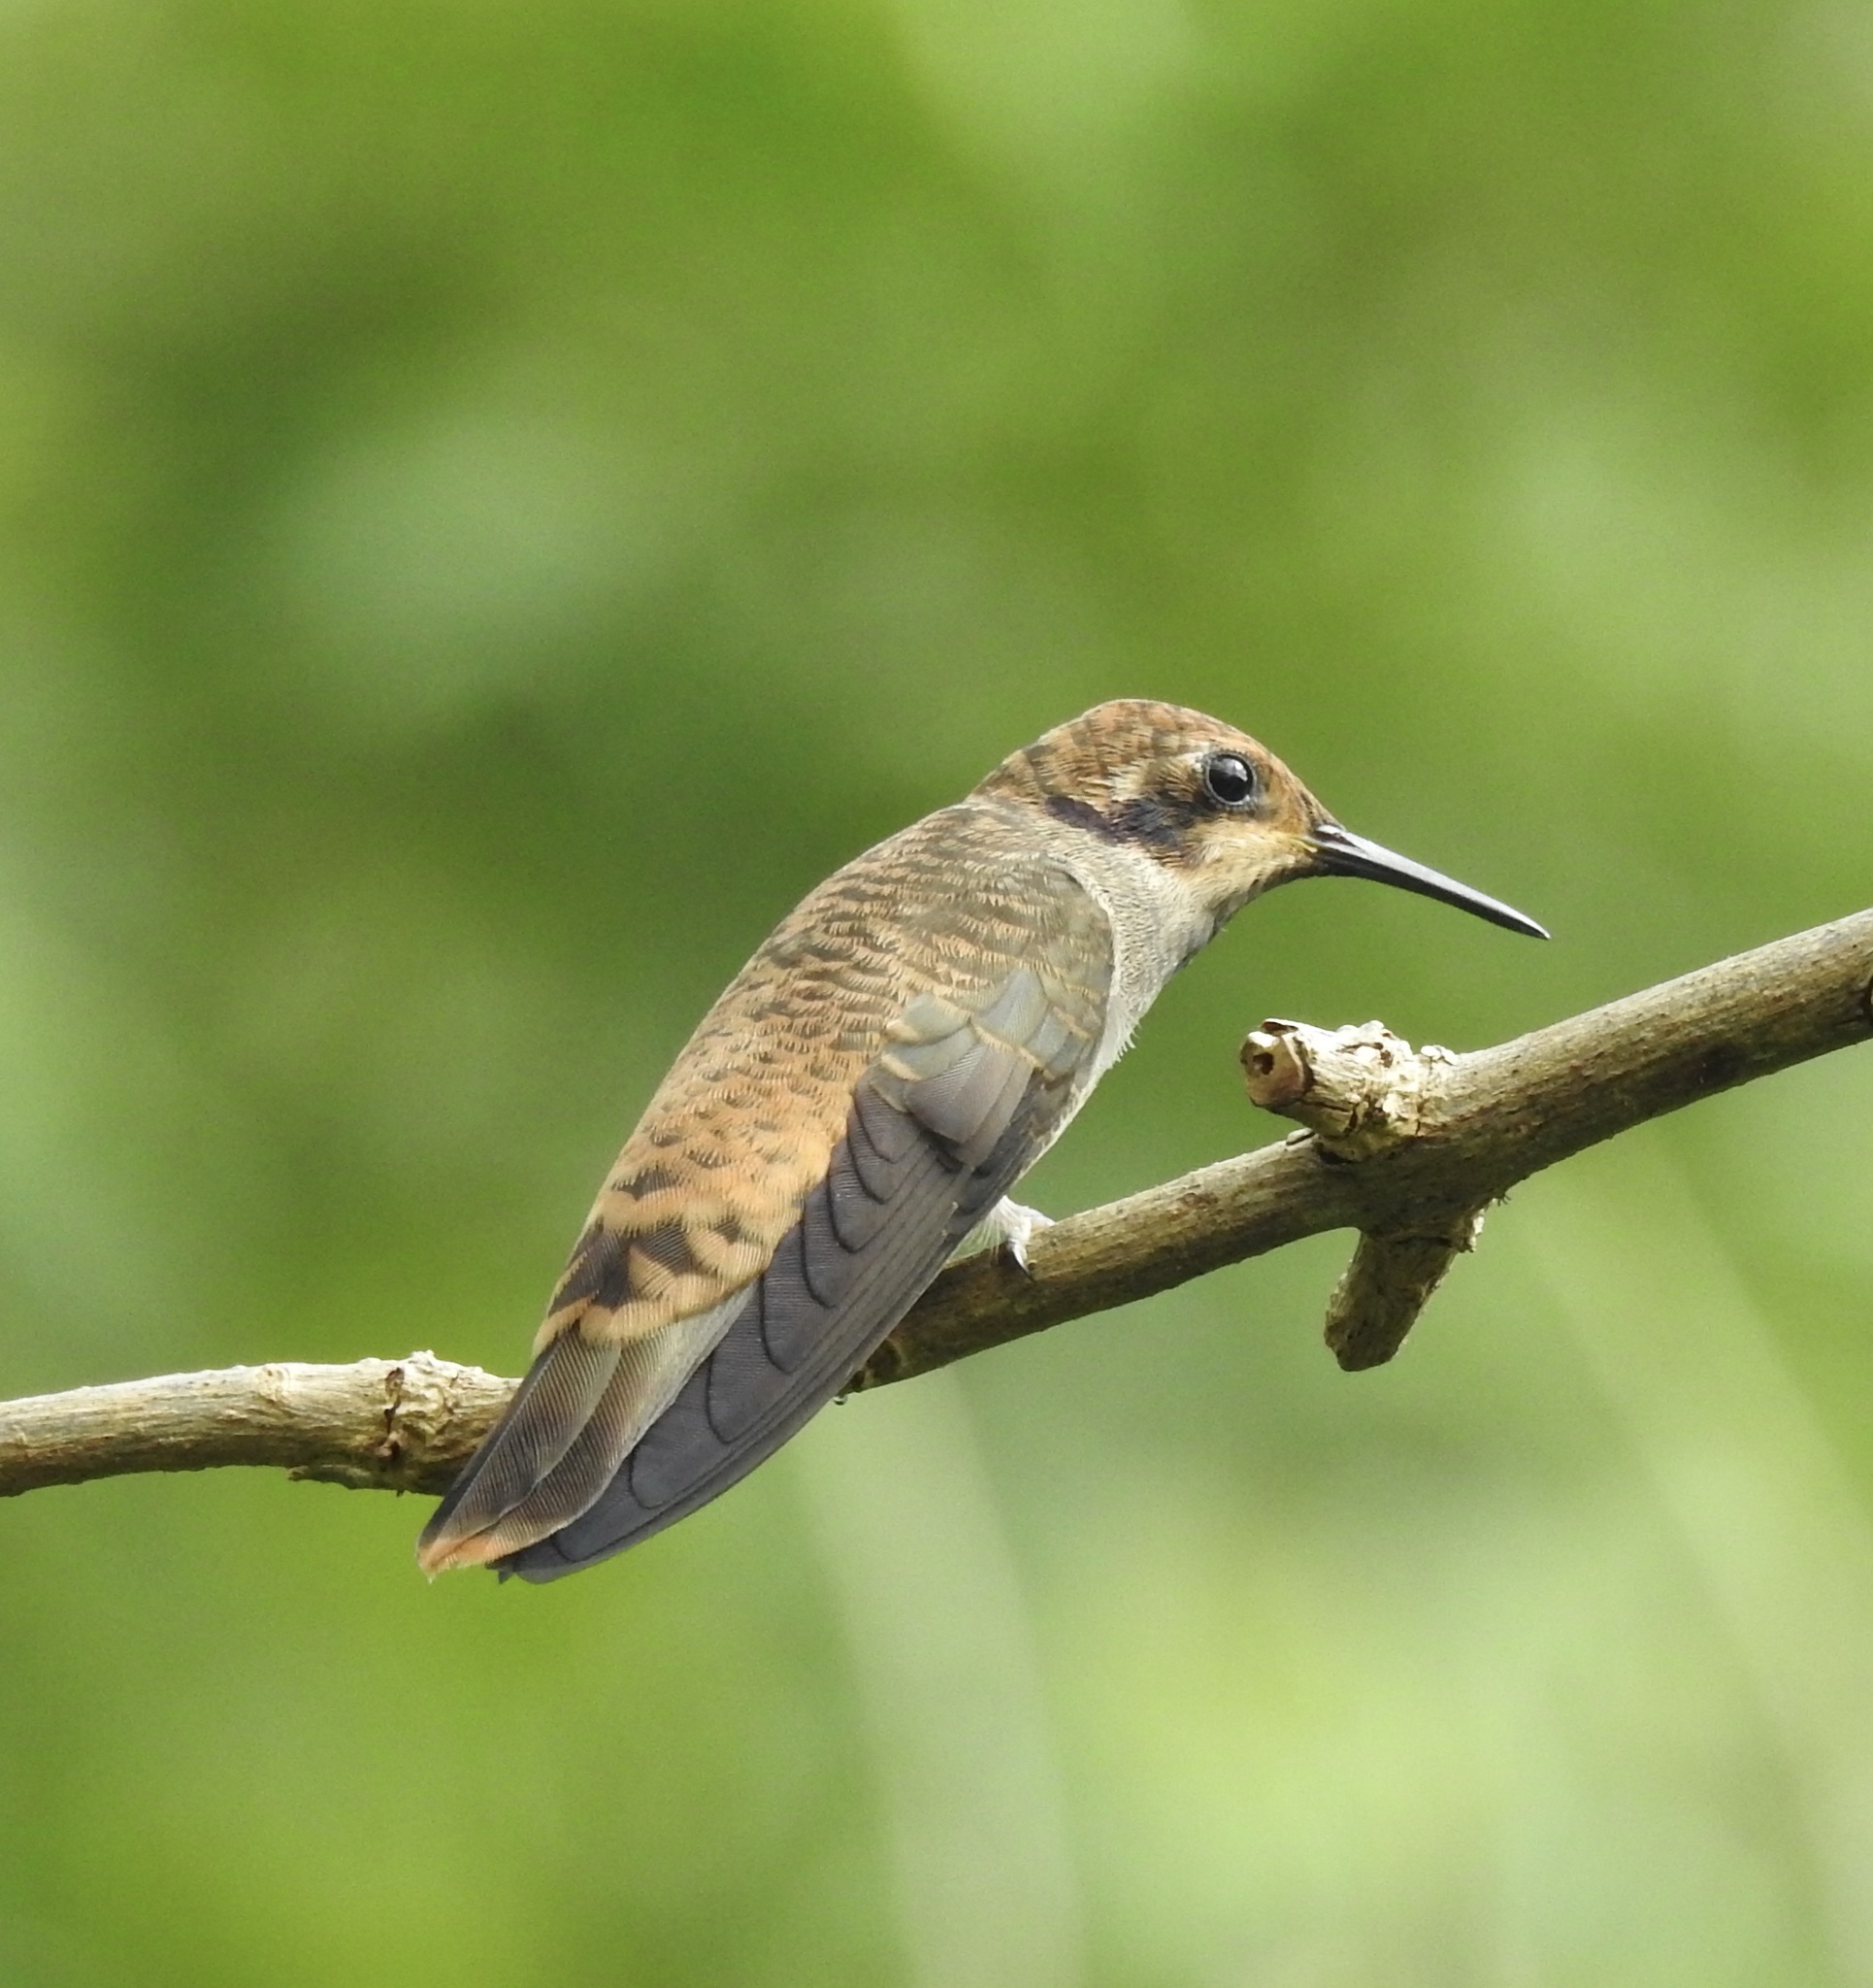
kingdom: Animalia
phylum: Chordata
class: Aves
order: Apodiformes
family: Trochilidae
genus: Colibri
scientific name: Colibri delphinae
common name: Brown violetear
